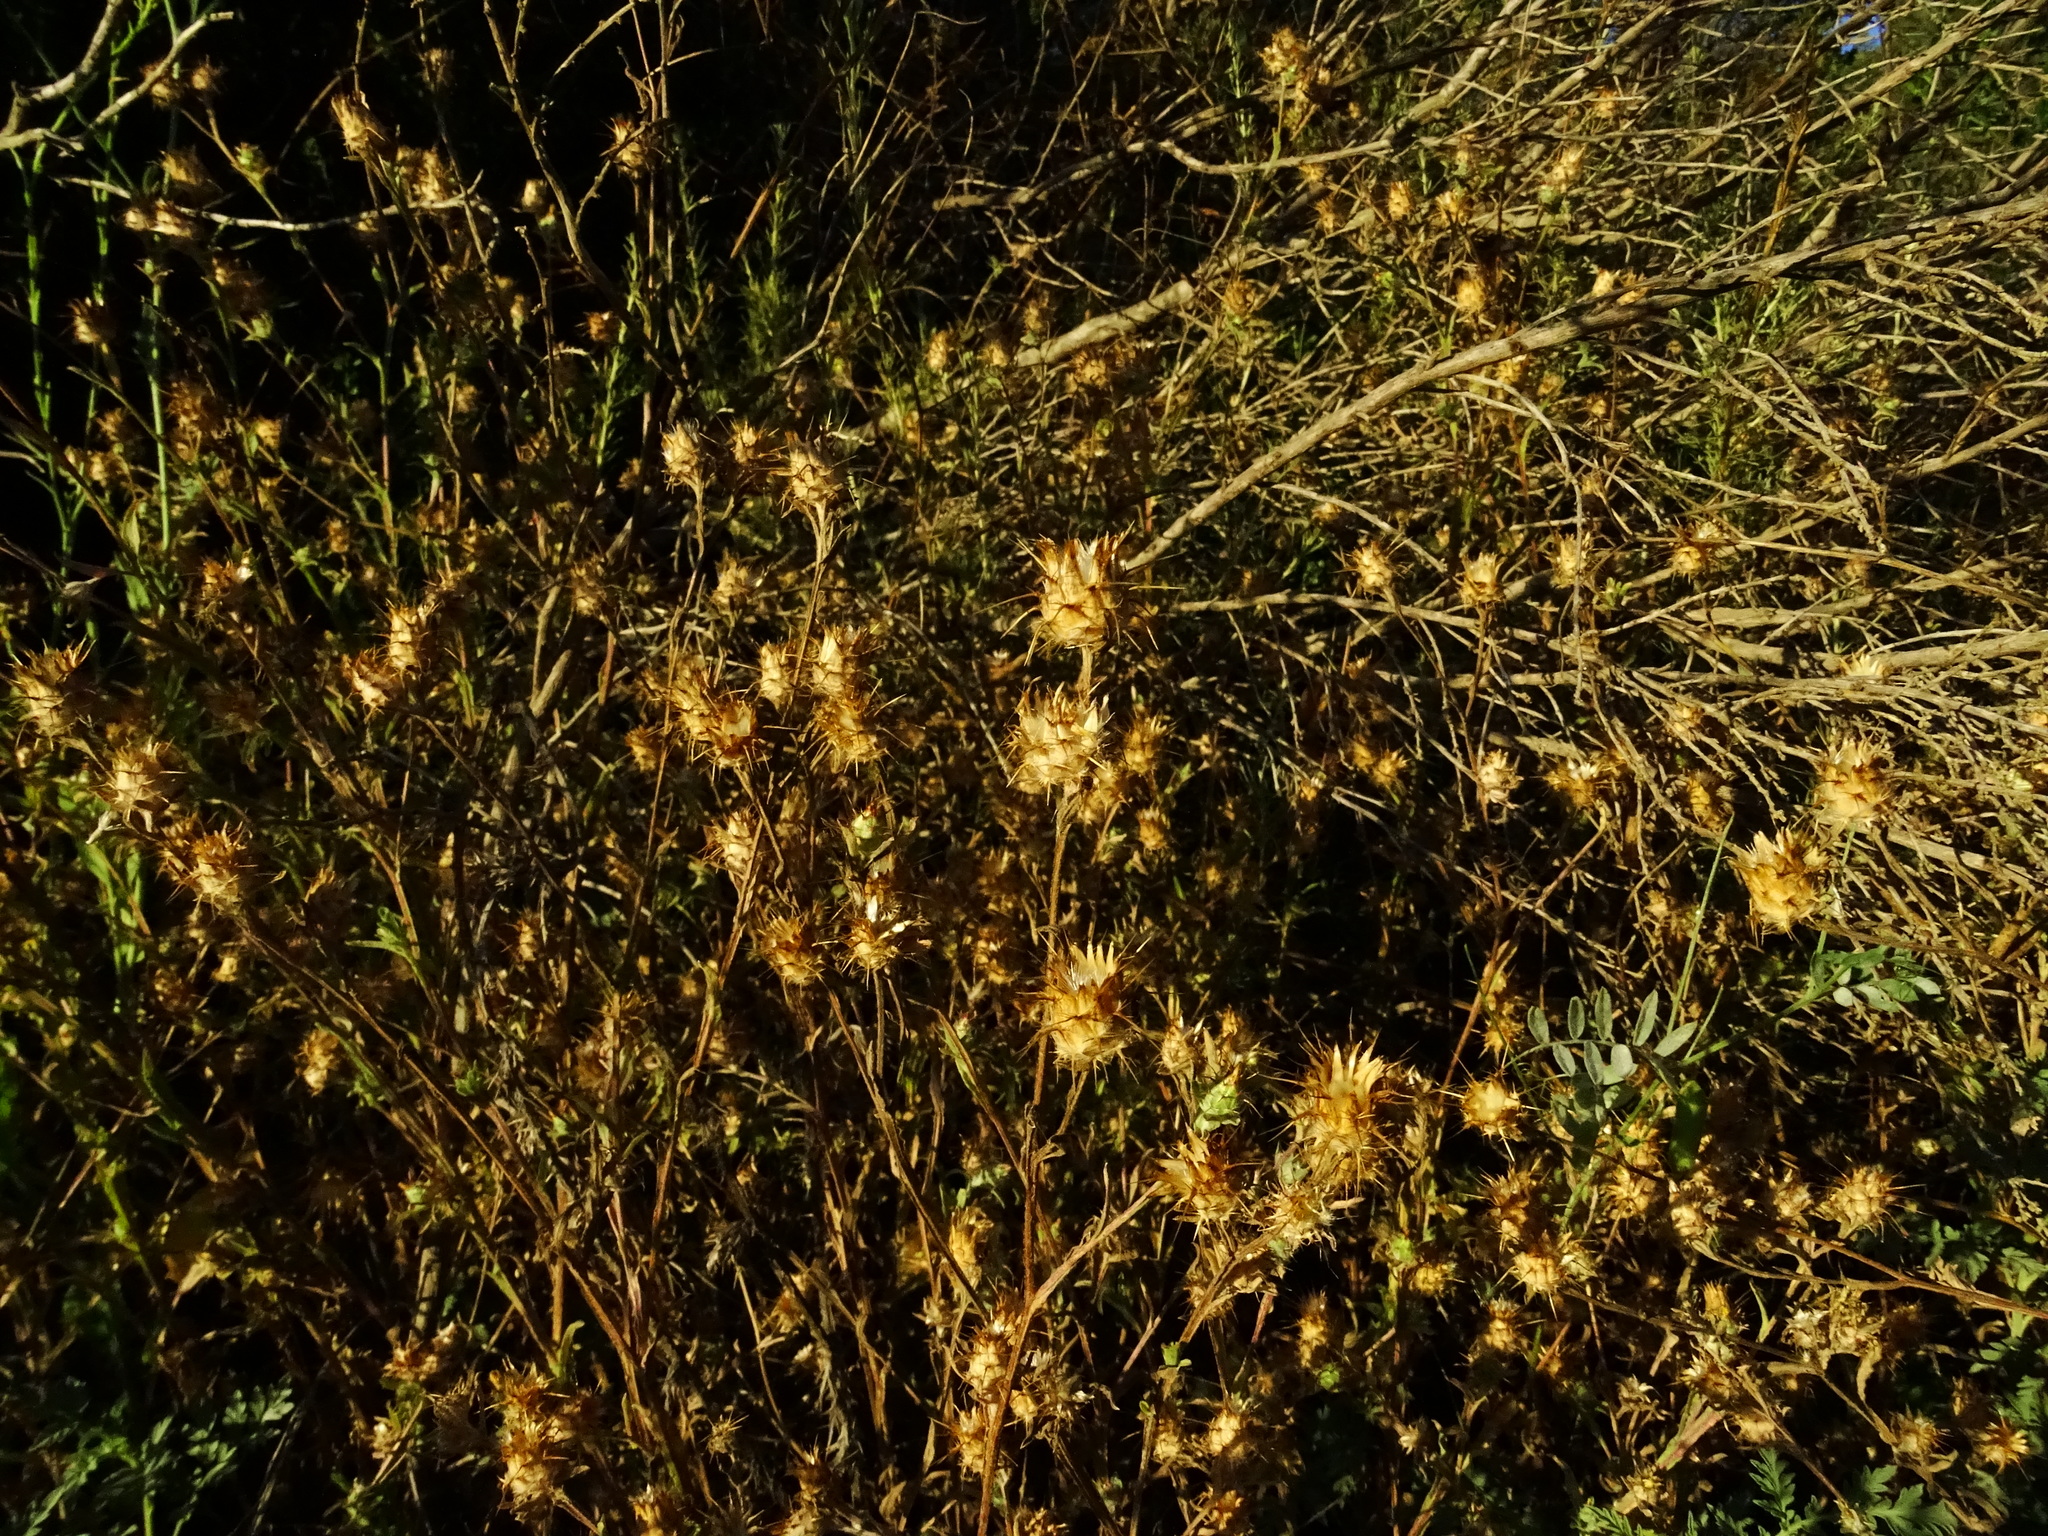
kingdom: Plantae
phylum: Tracheophyta
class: Magnoliopsida
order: Asterales
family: Asteraceae
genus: Centaurea
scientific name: Centaurea melitensis
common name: Maltese star-thistle
